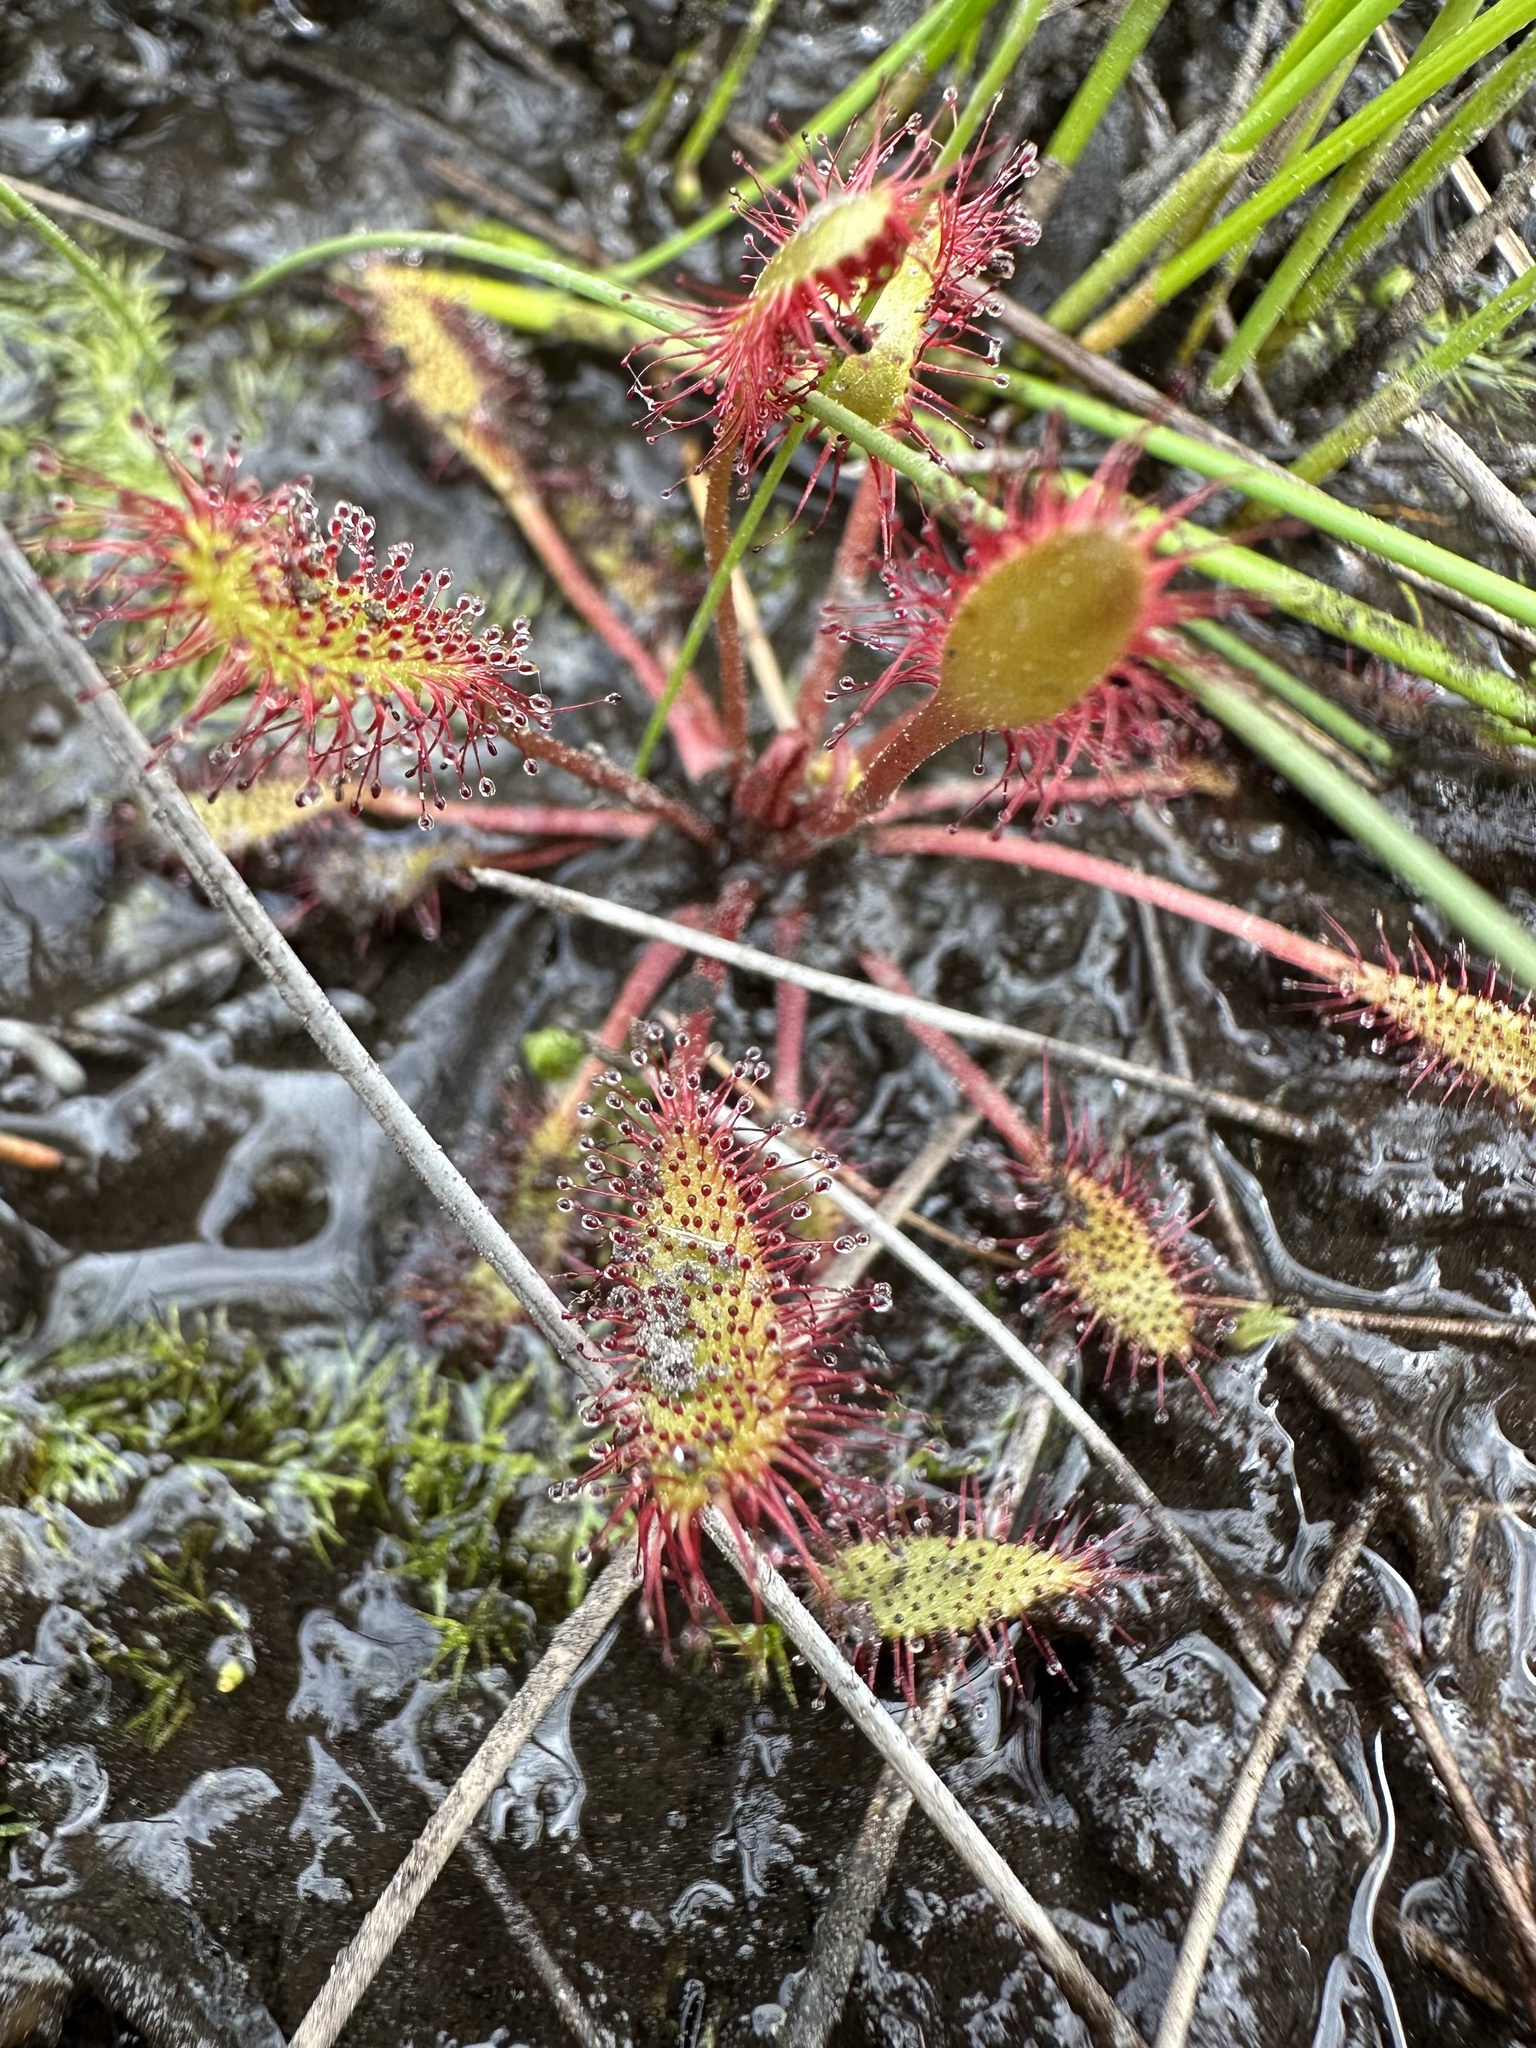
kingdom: Plantae
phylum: Tracheophyta
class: Magnoliopsida
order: Caryophyllales
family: Droseraceae
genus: Drosera
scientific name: Drosera anglica
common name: Great sundew
